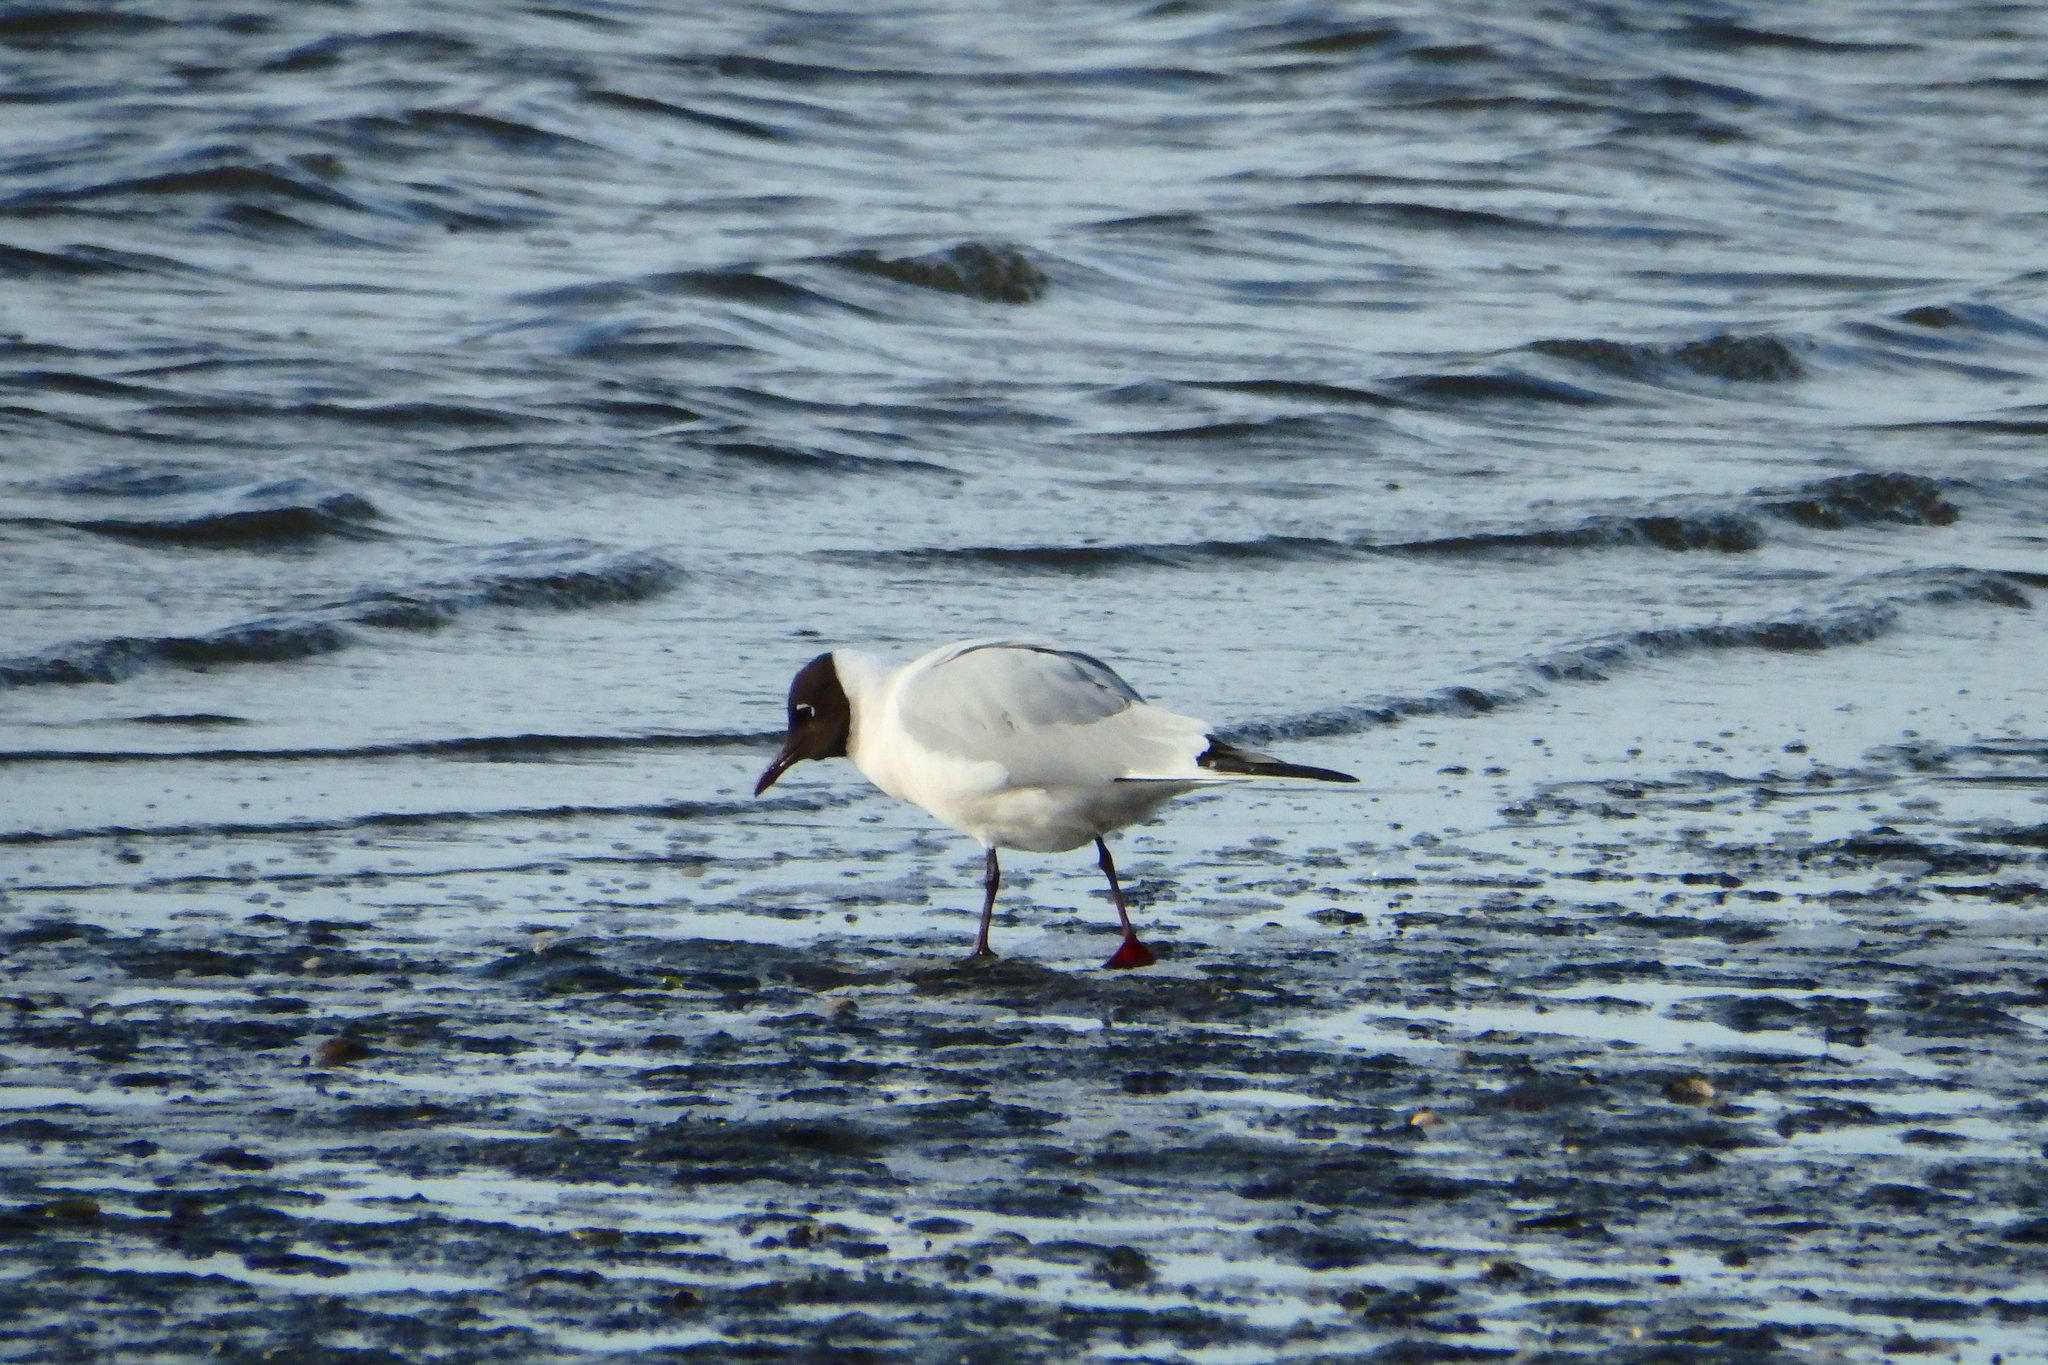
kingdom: Animalia
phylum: Chordata
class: Aves
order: Charadriiformes
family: Laridae
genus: Chroicocephalus
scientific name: Chroicocephalus ridibundus
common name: Black-headed gull
